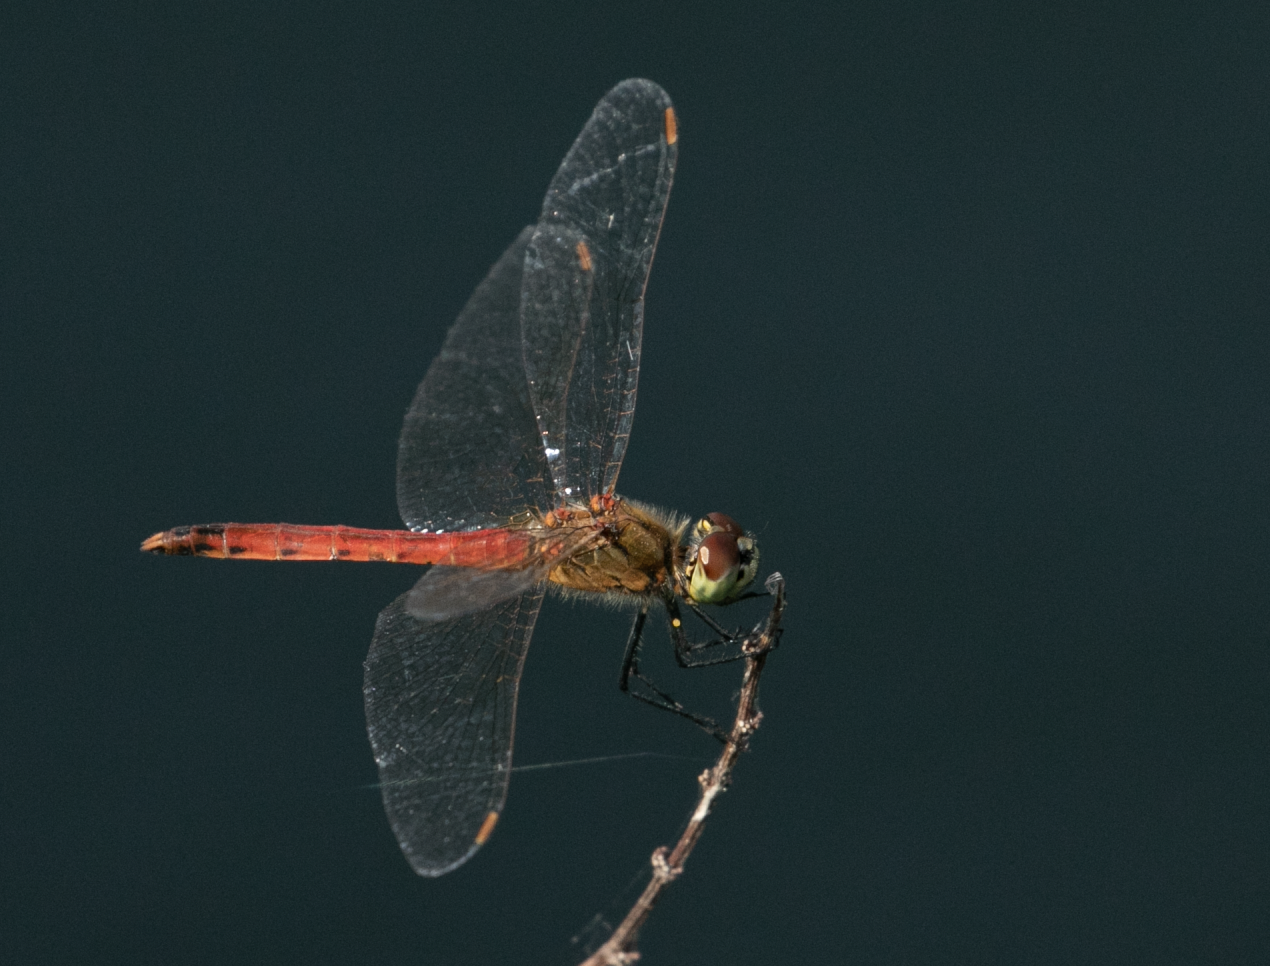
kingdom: Animalia
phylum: Arthropoda
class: Insecta
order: Odonata
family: Libellulidae
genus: Sympetrum
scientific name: Sympetrum depressiusculum
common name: Spotted darter
